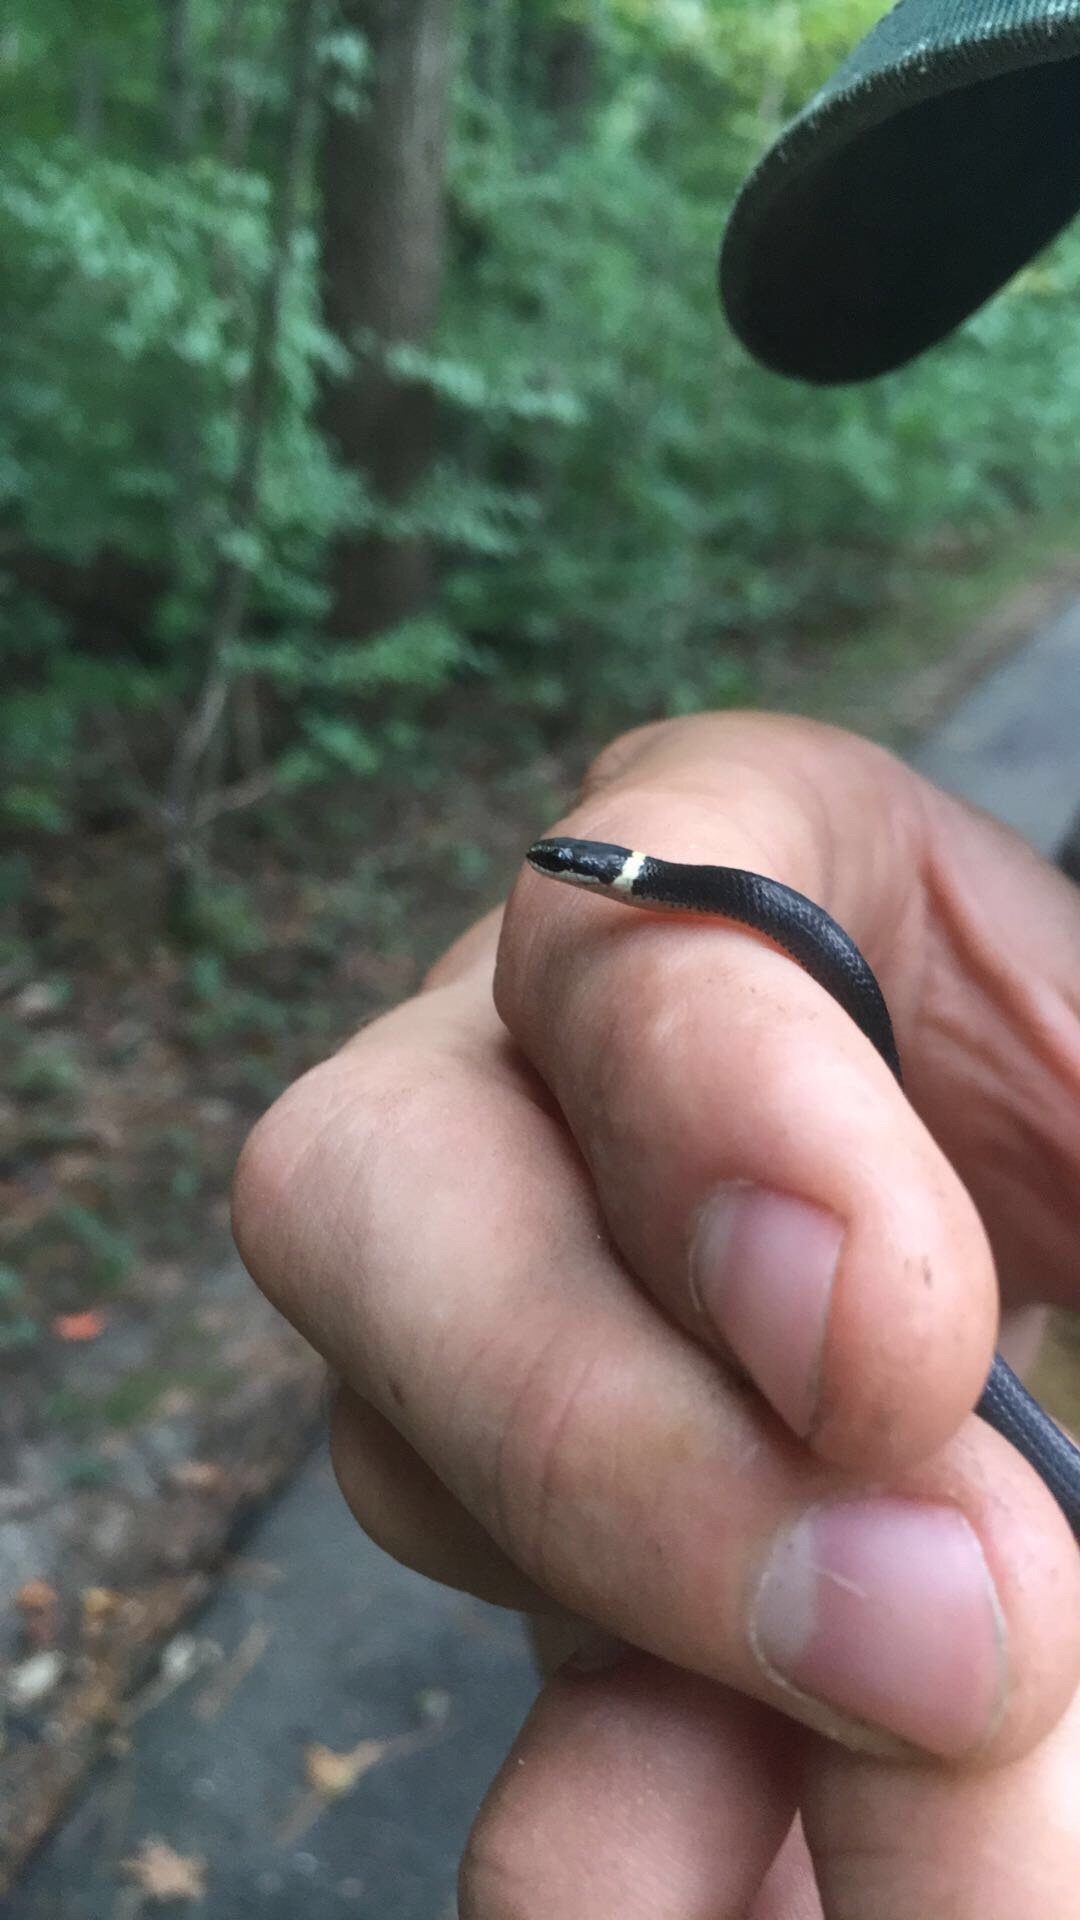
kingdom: Animalia
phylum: Chordata
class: Squamata
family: Colubridae
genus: Diadophis
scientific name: Diadophis punctatus
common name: Ringneck snake
